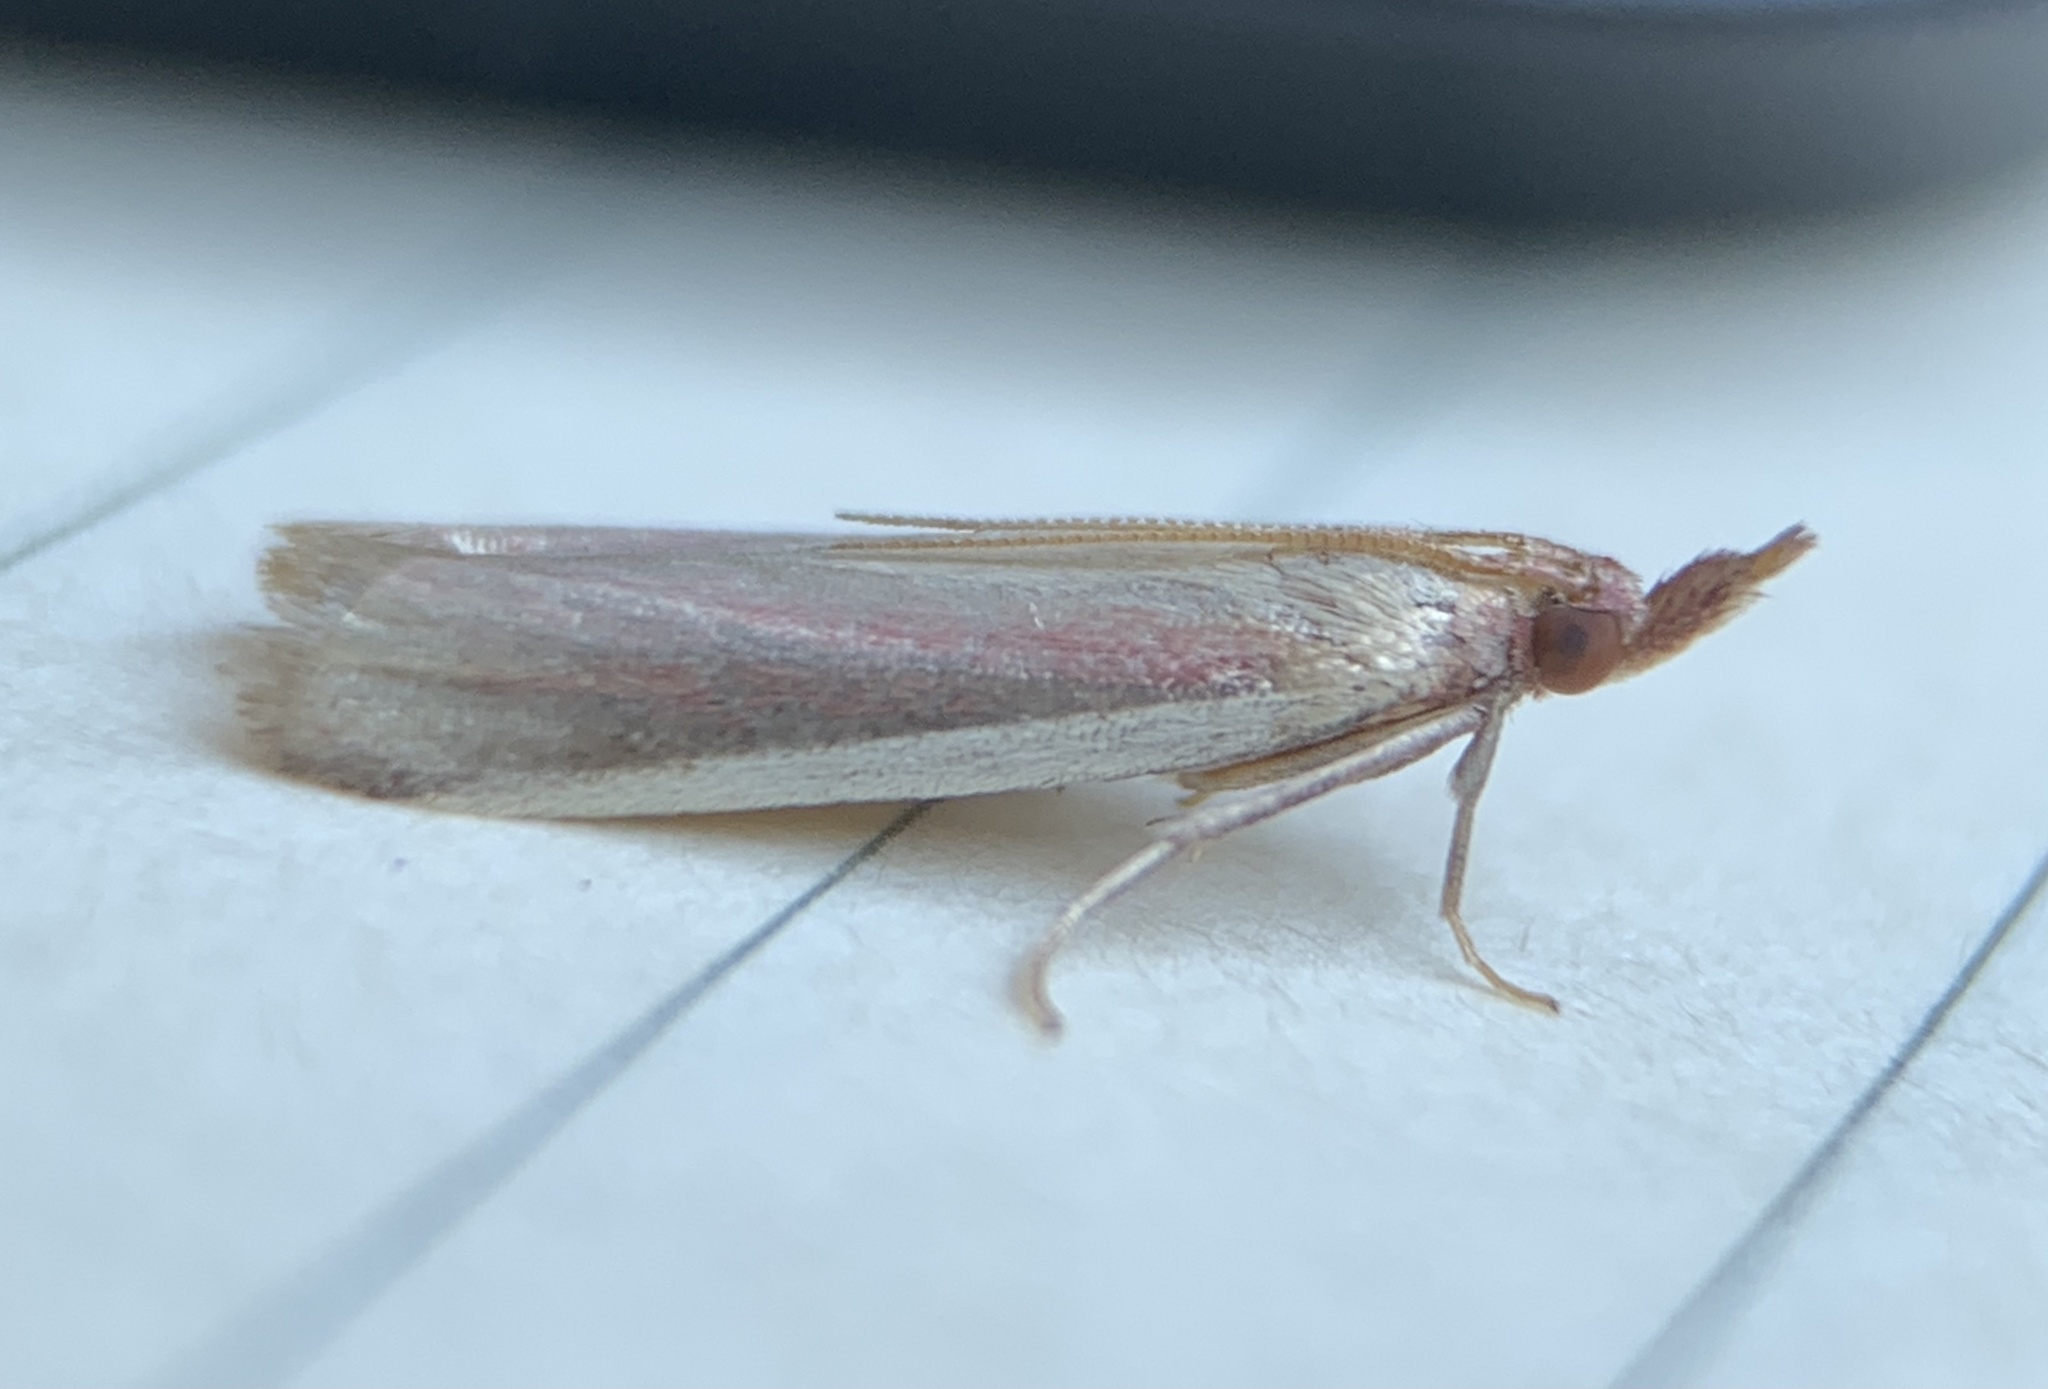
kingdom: Animalia
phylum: Arthropoda
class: Insecta
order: Lepidoptera
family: Pyralidae
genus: Peoria
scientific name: Peoria approximella
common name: Carmine snout
